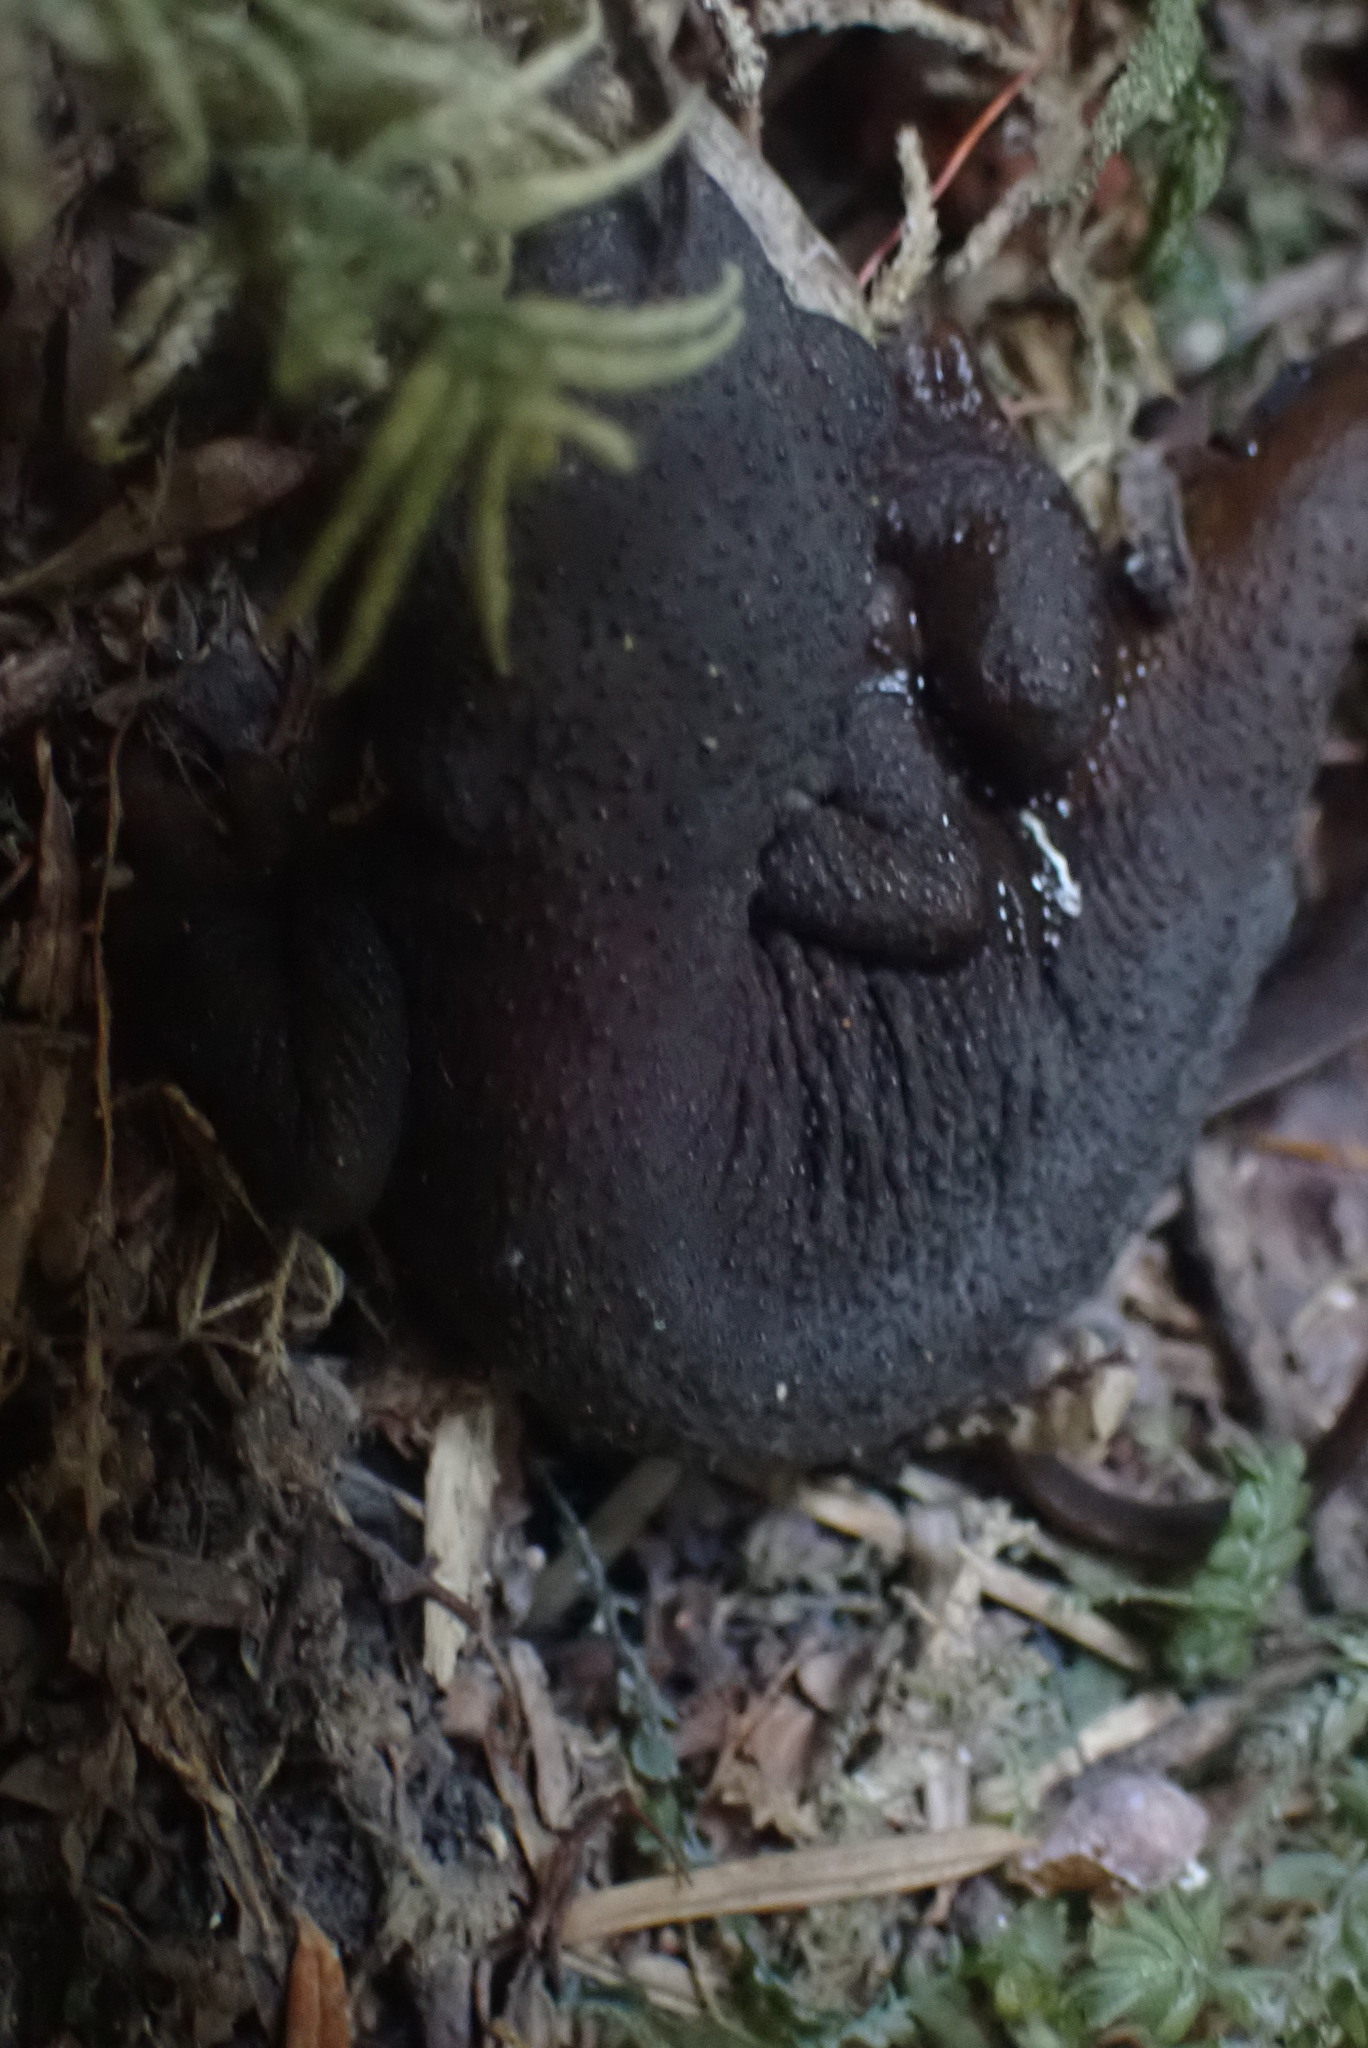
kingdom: Animalia
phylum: Chordata
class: Amphibia
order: Caudata
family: Salamandridae
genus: Taricha
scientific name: Taricha granulosa
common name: Roughskin newt
